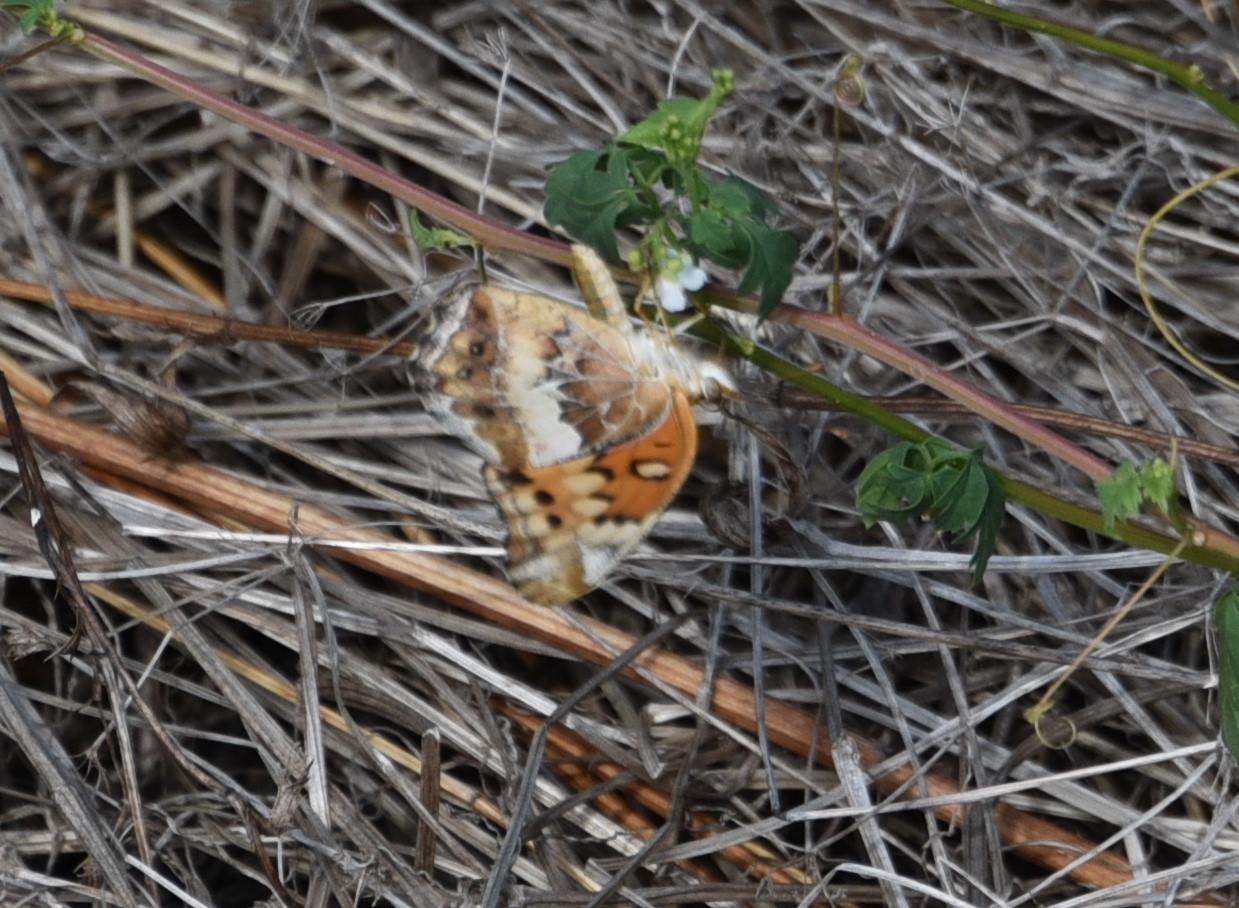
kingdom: Animalia
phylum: Arthropoda
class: Insecta
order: Lepidoptera
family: Nymphalidae
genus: Euptoieta
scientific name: Euptoieta claudia
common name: Variegated fritillary
